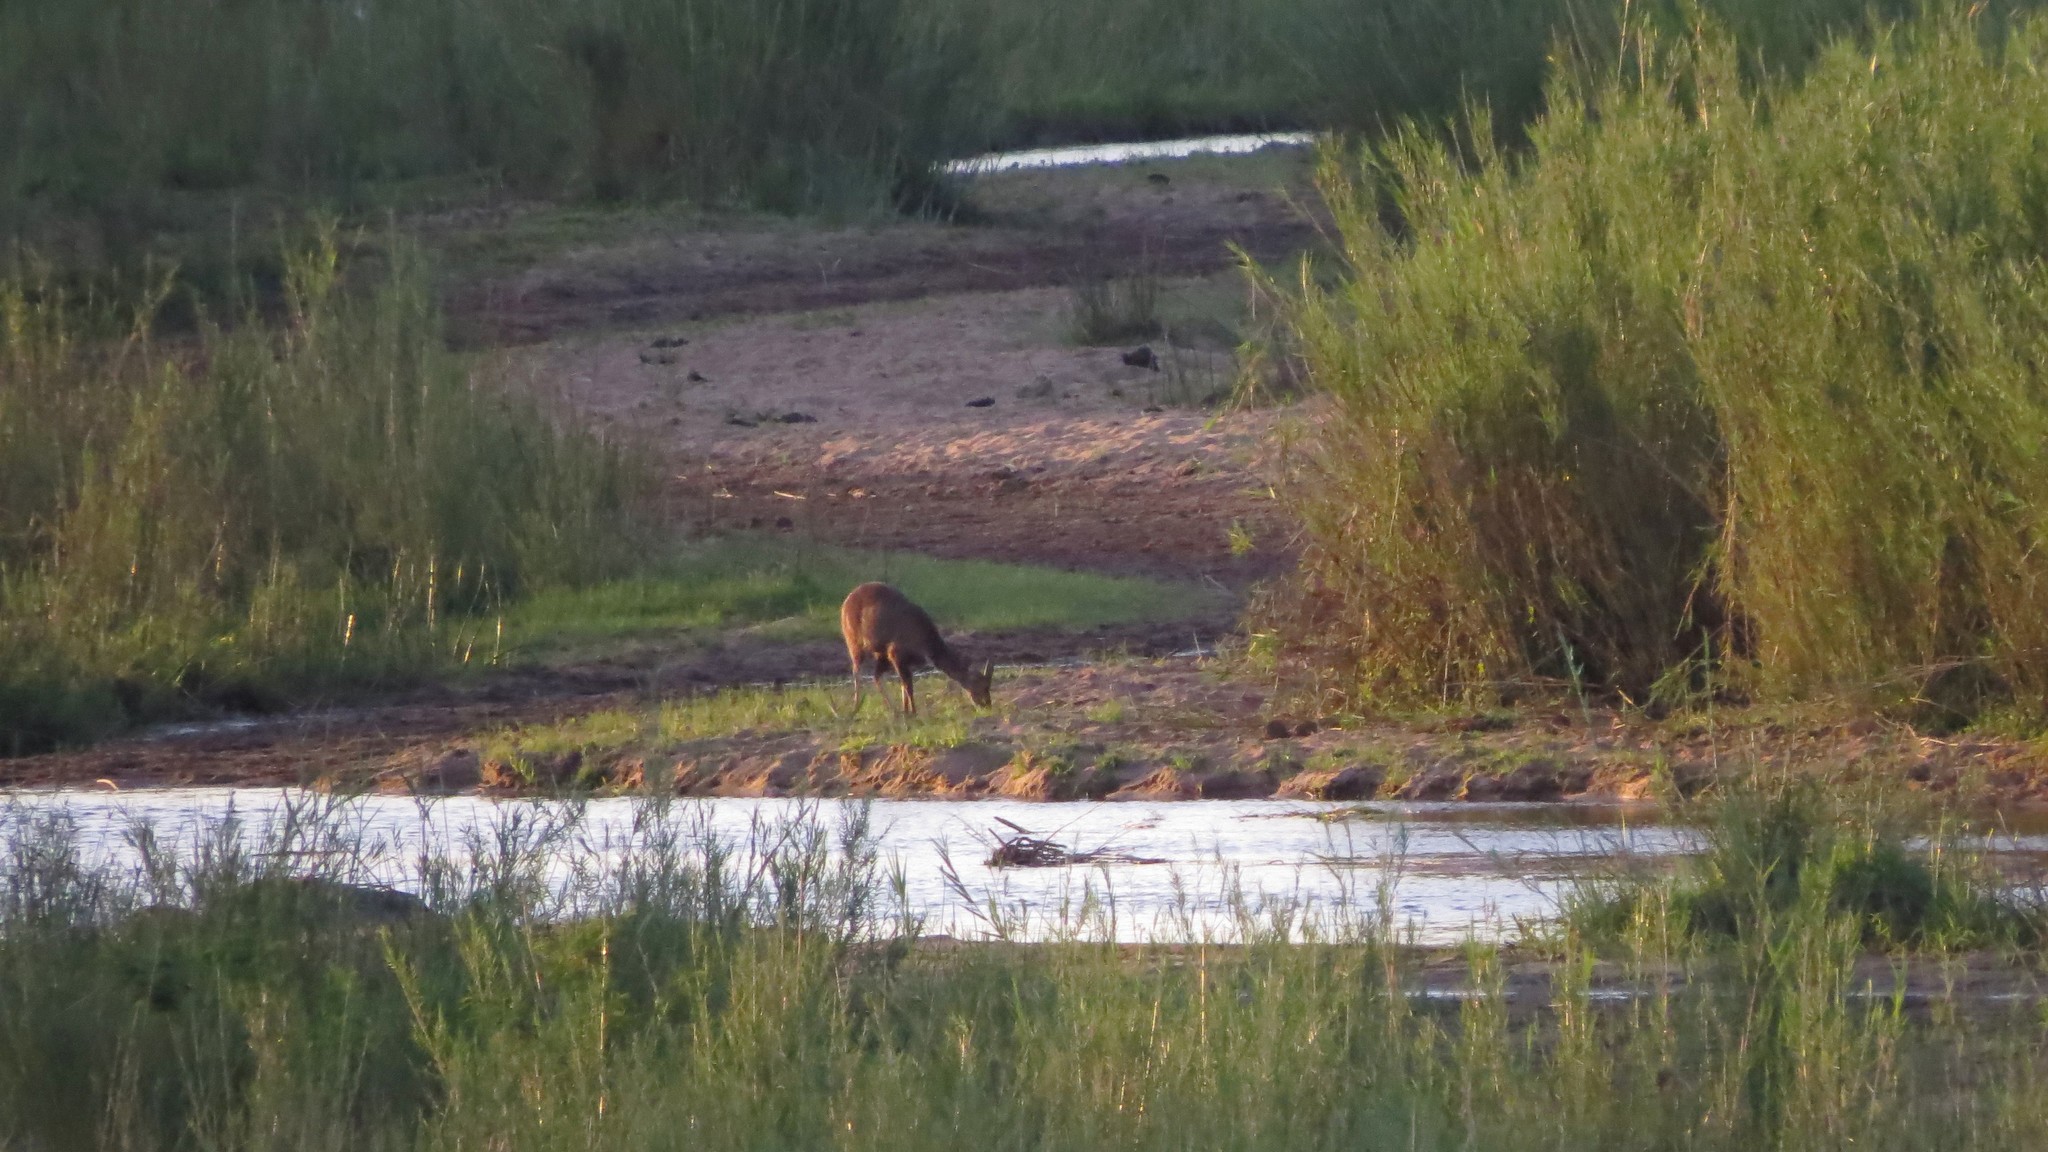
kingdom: Animalia
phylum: Chordata
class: Mammalia
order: Artiodactyla
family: Bovidae
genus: Tragelaphus
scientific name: Tragelaphus scriptus
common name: Bushbuck
